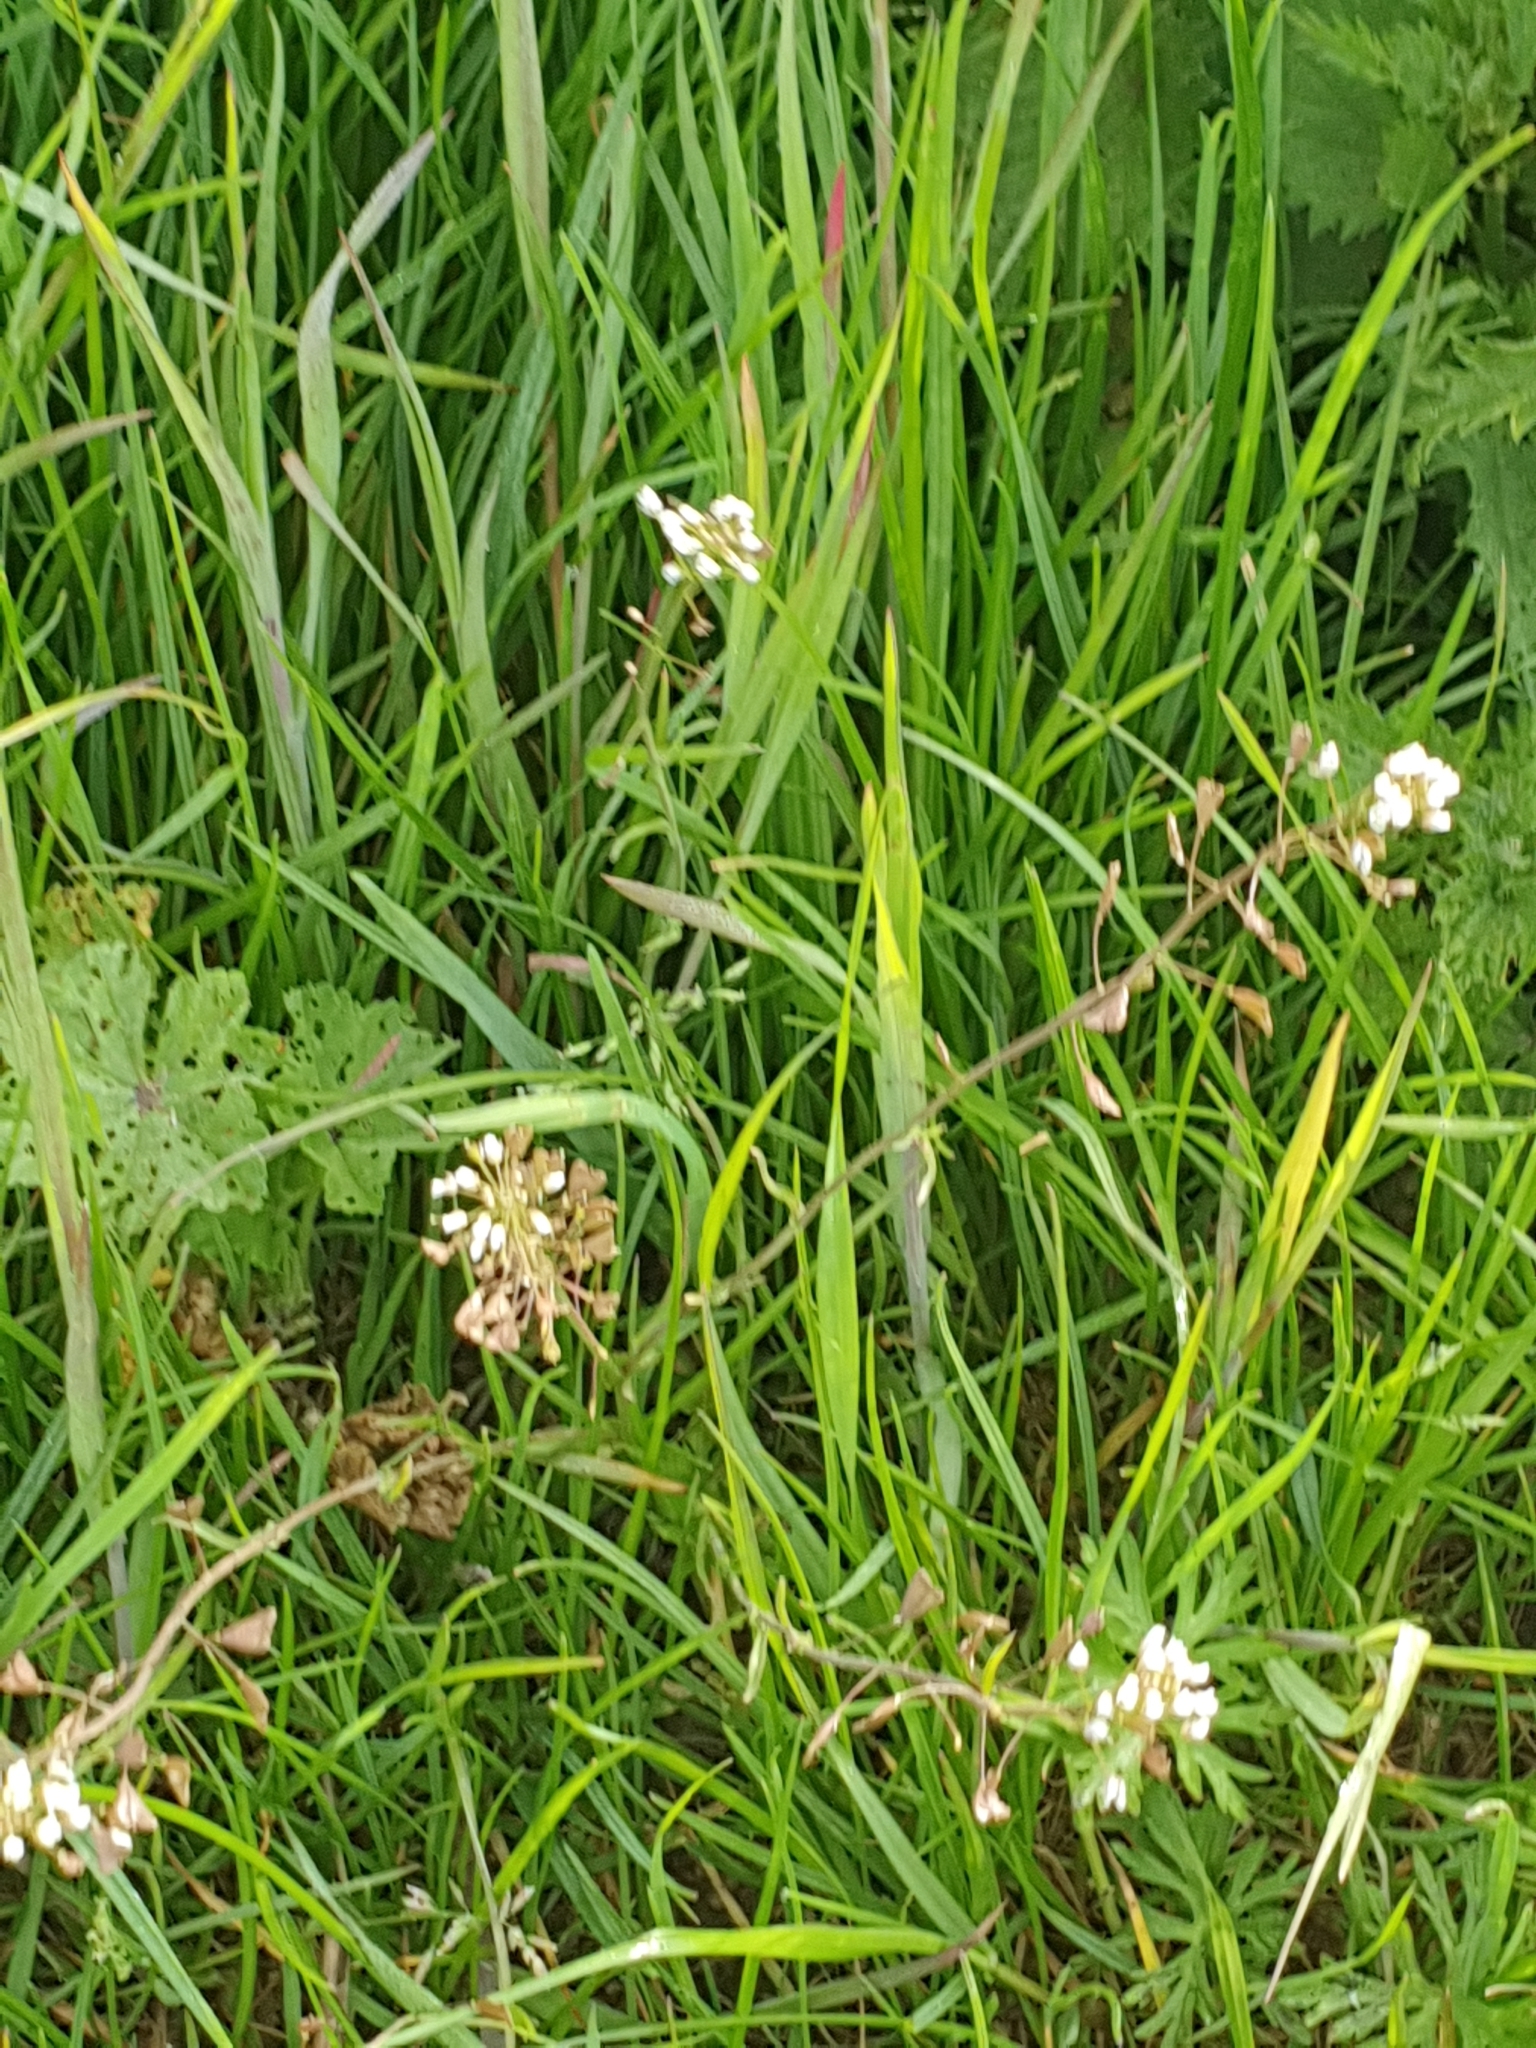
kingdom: Plantae
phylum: Tracheophyta
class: Magnoliopsida
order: Brassicales
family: Brassicaceae
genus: Capsella
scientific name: Capsella bursa-pastoris
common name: Shepherd's purse
